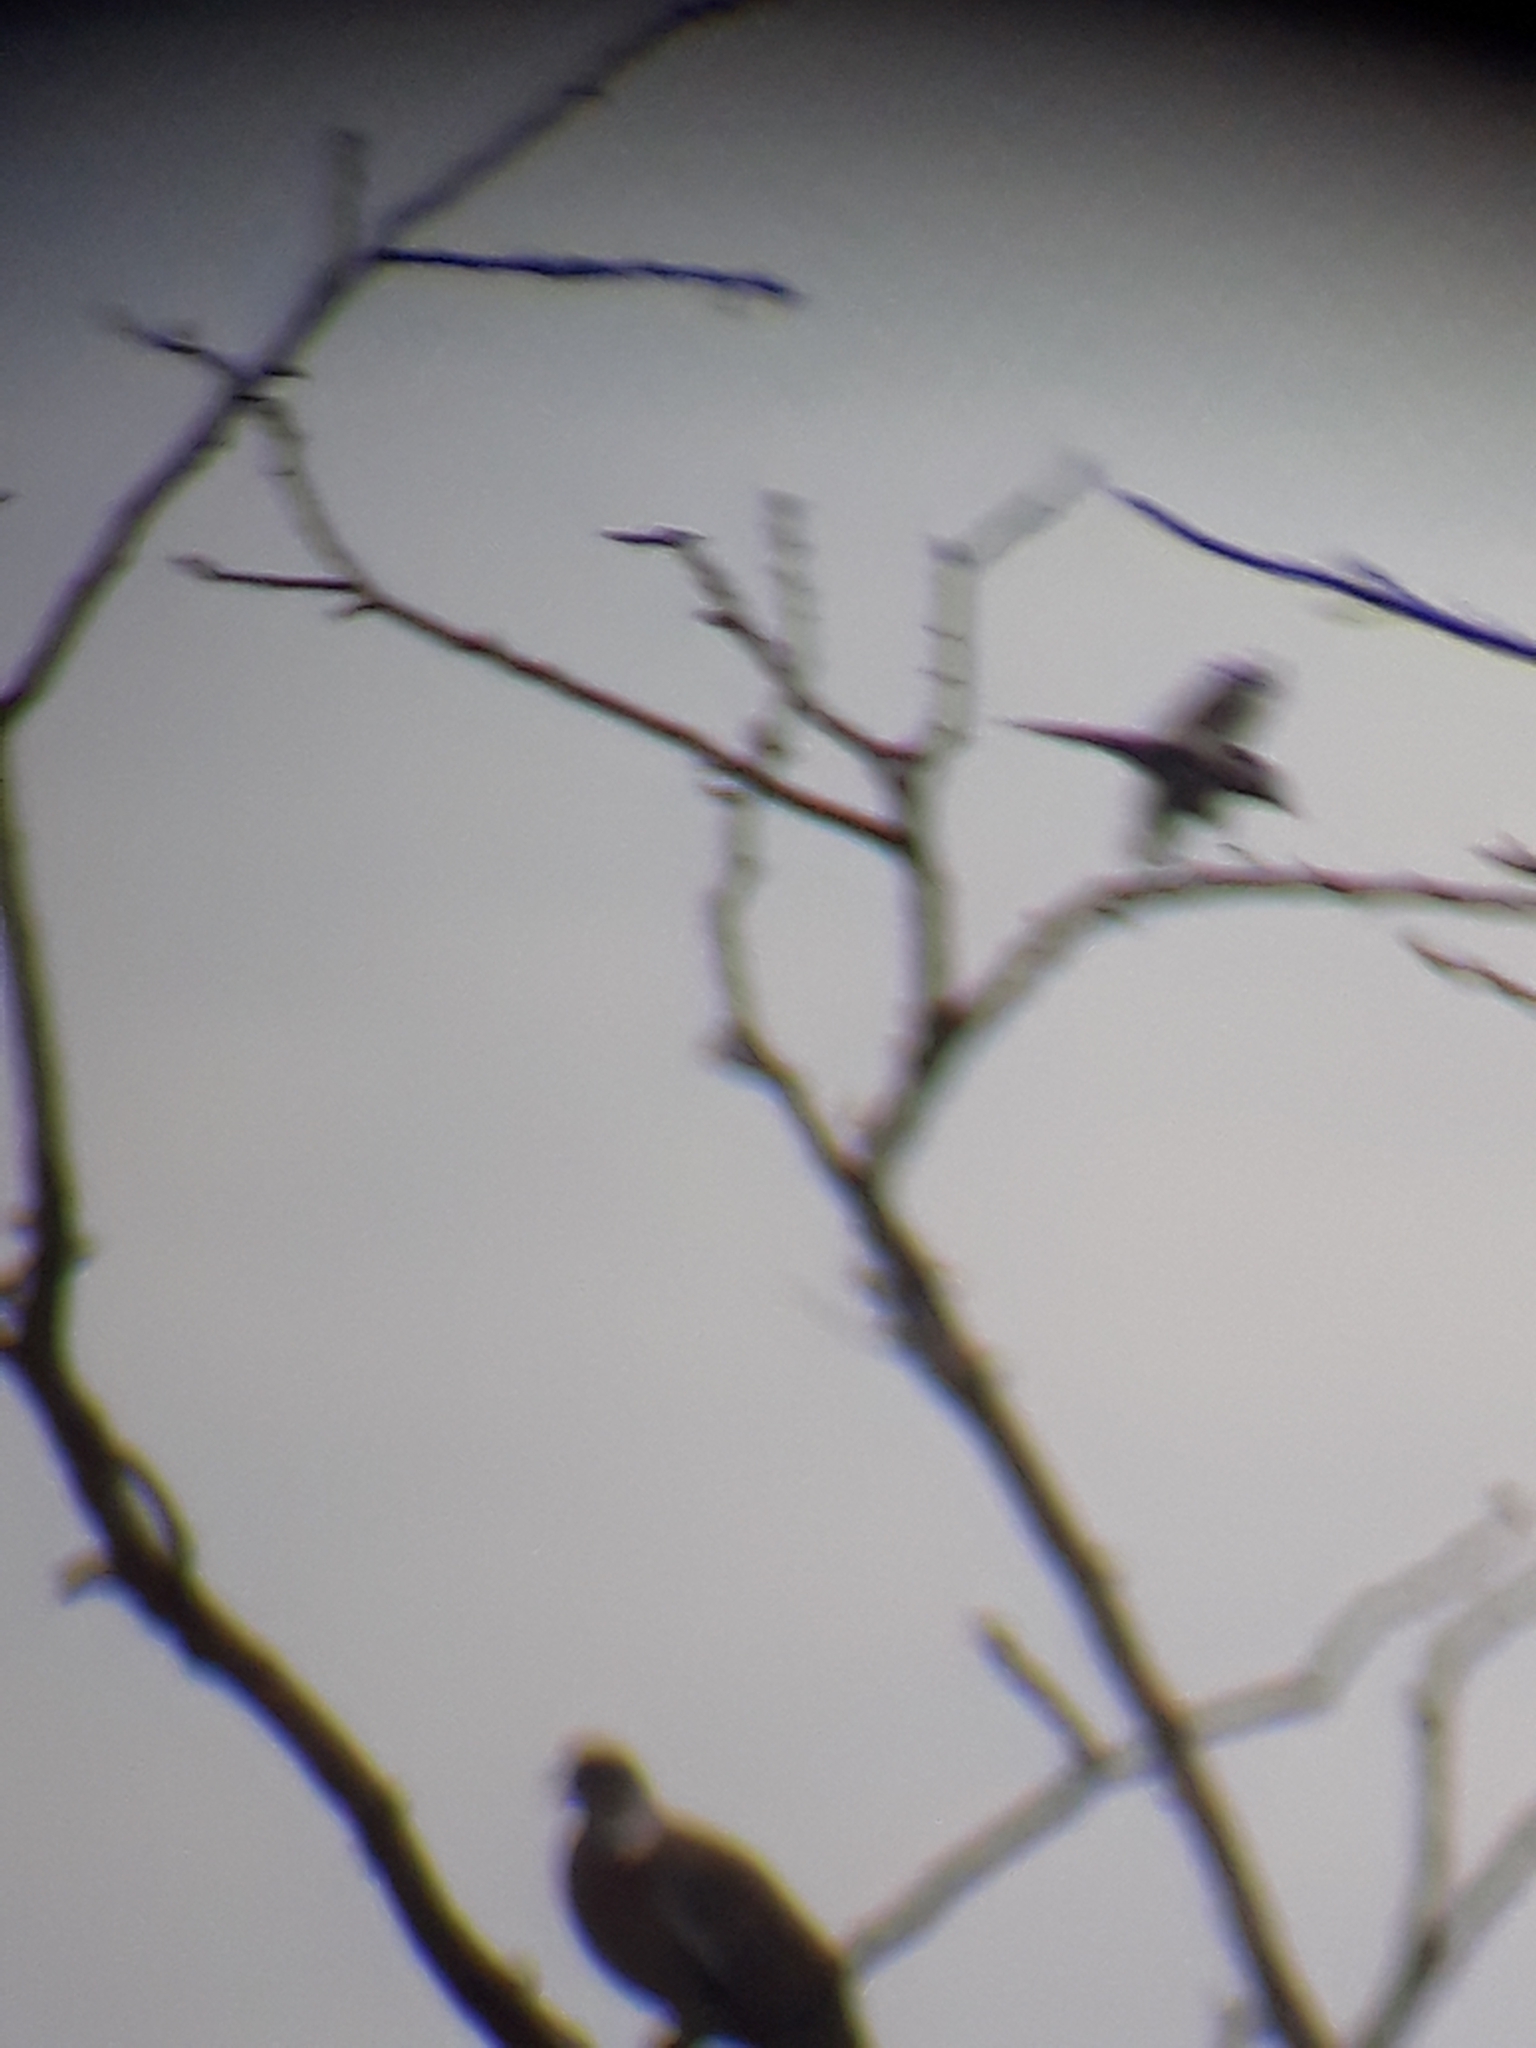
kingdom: Animalia
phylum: Chordata
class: Aves
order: Piciformes
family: Picidae
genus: Dendrocopos
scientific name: Dendrocopos major
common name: Great spotted woodpecker
